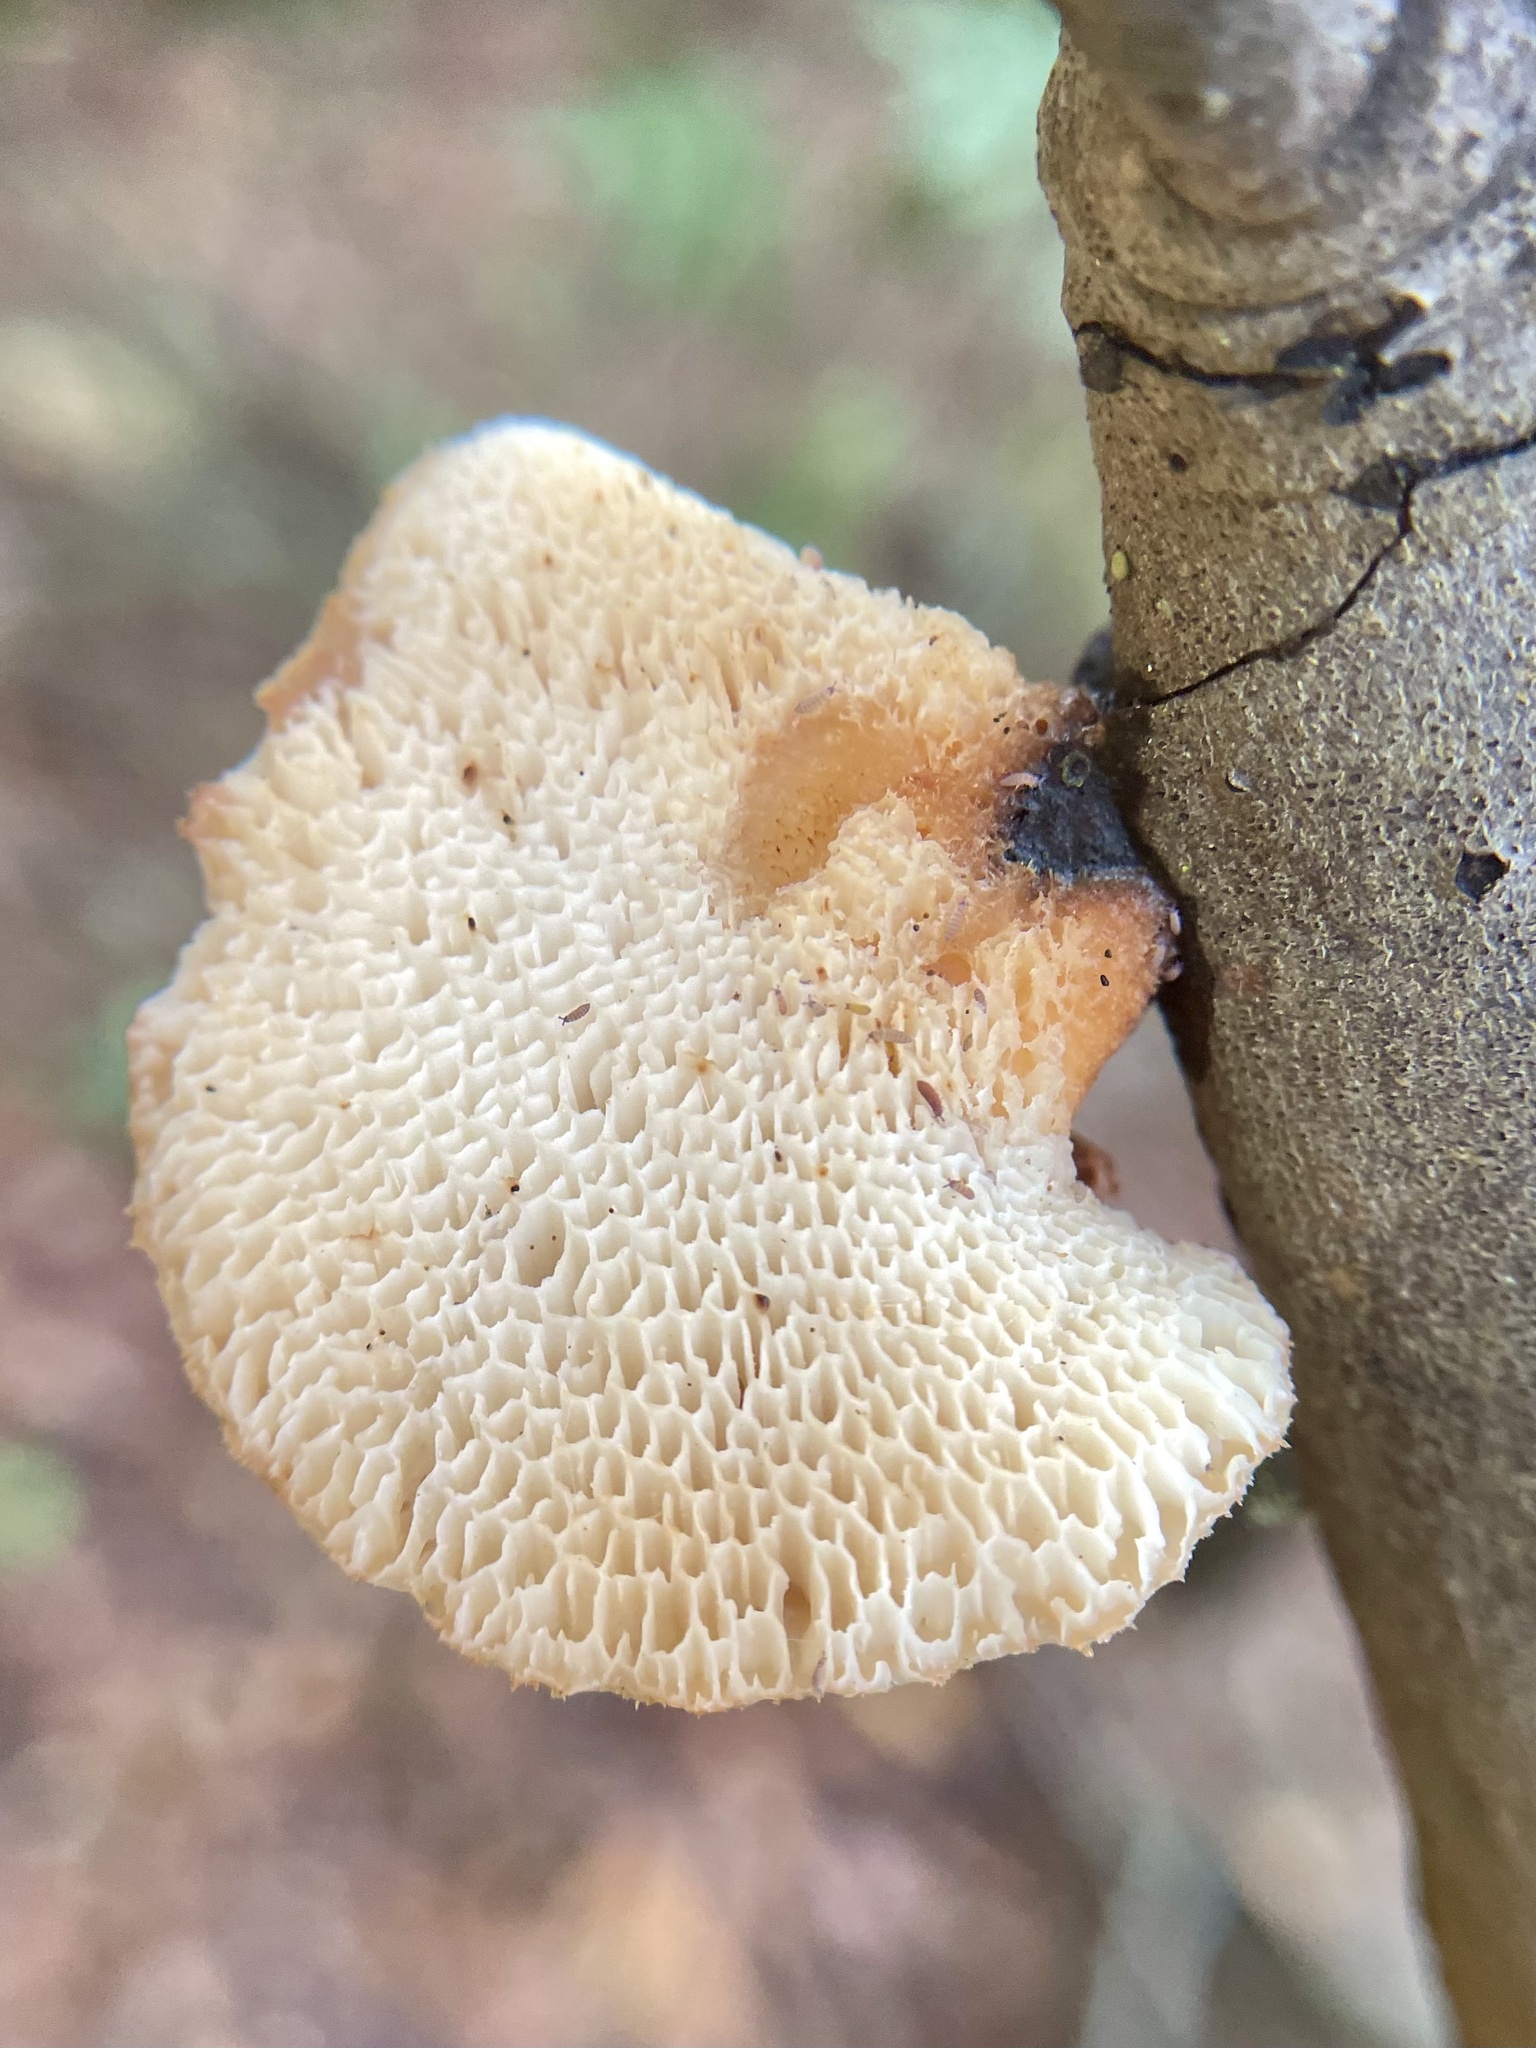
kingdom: Fungi
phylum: Basidiomycota
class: Agaricomycetes
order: Polyporales
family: Phanerochaetaceae
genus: Bjerkandera
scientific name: Bjerkandera fumosa
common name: Big smoky bracket
